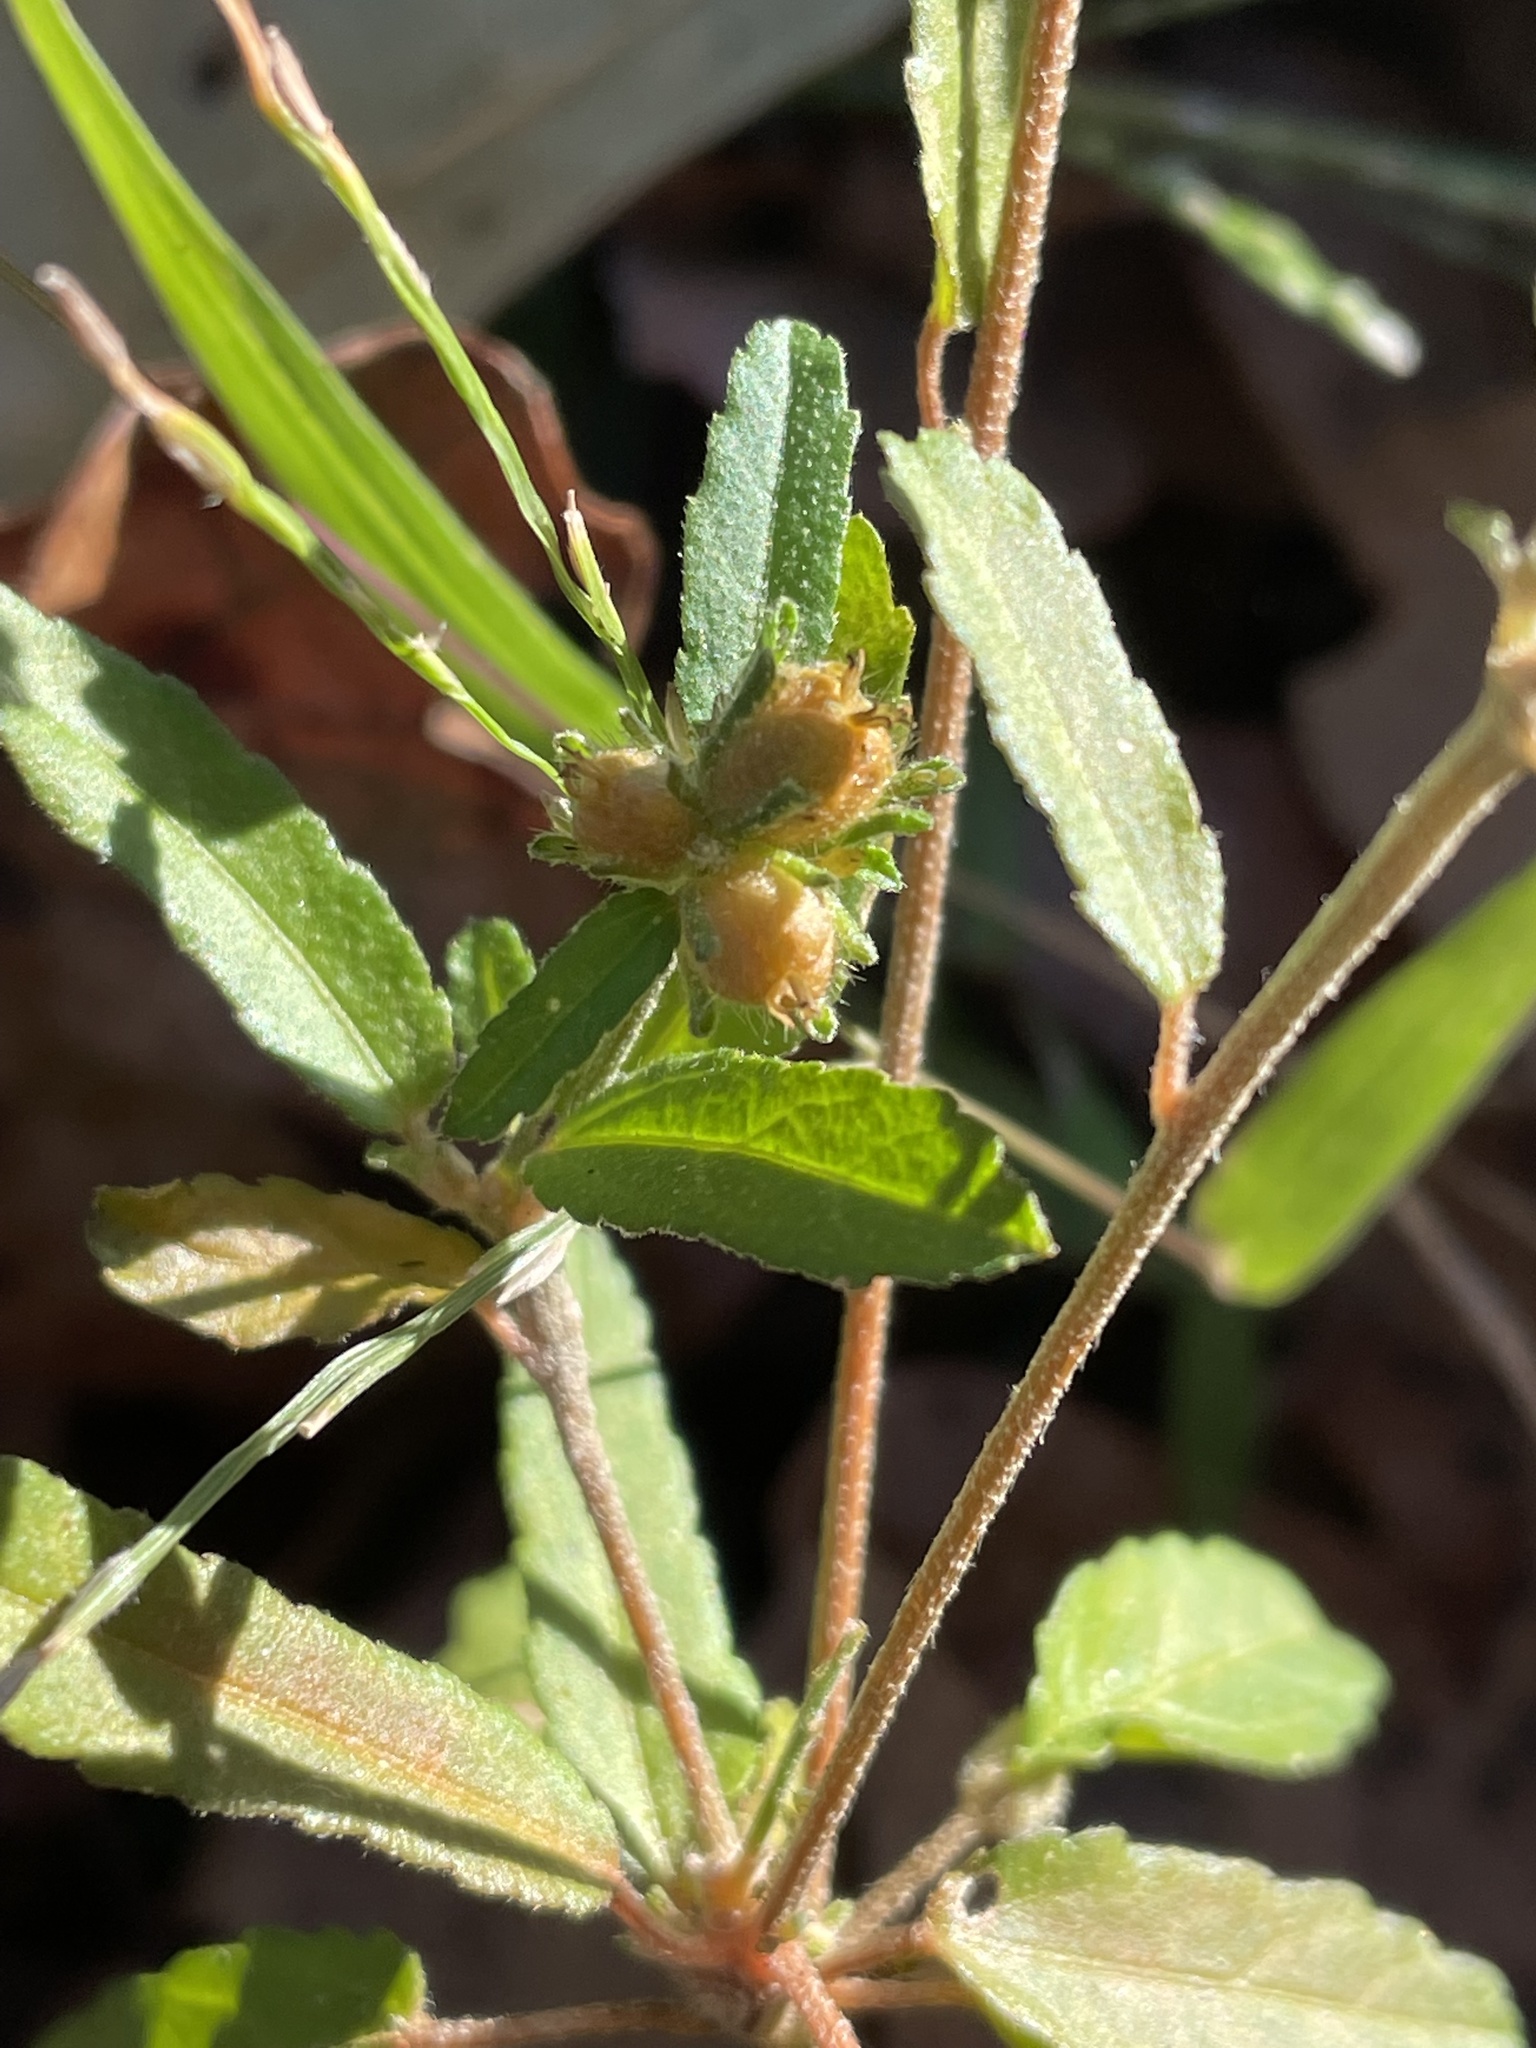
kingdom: Plantae
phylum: Tracheophyta
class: Magnoliopsida
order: Malpighiales
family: Euphorbiaceae
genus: Croton
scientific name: Croton glandulosus
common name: Tropic croton
